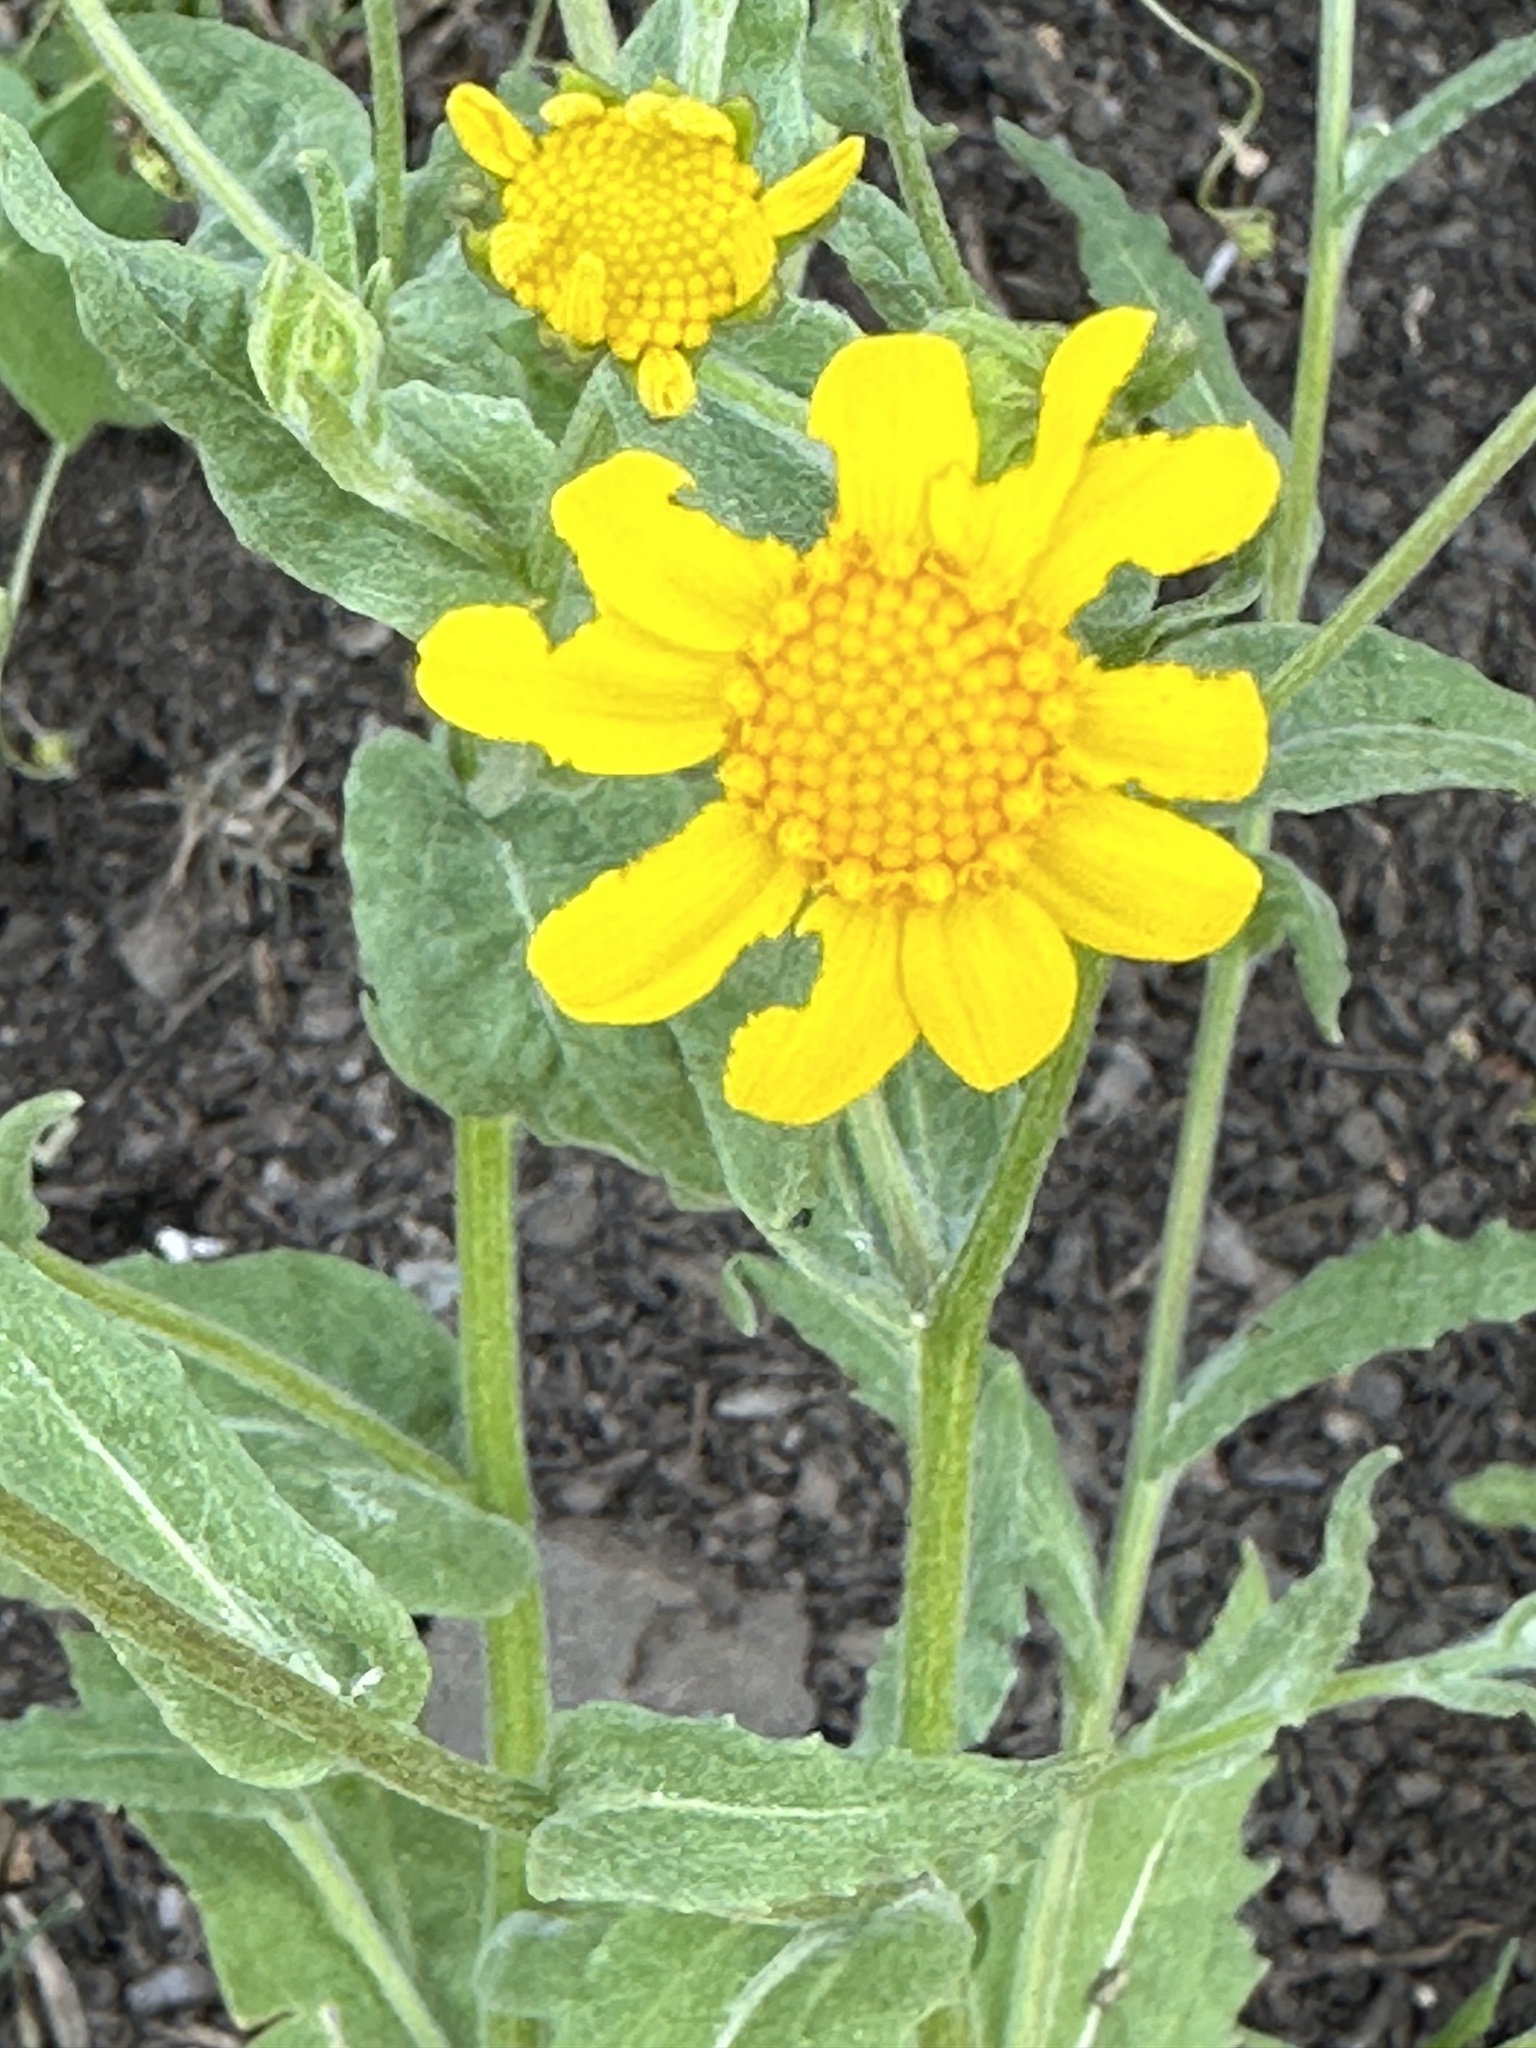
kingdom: Plantae
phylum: Tracheophyta
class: Magnoliopsida
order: Asterales
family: Asteraceae
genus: Monolopia
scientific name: Monolopia gracilens
